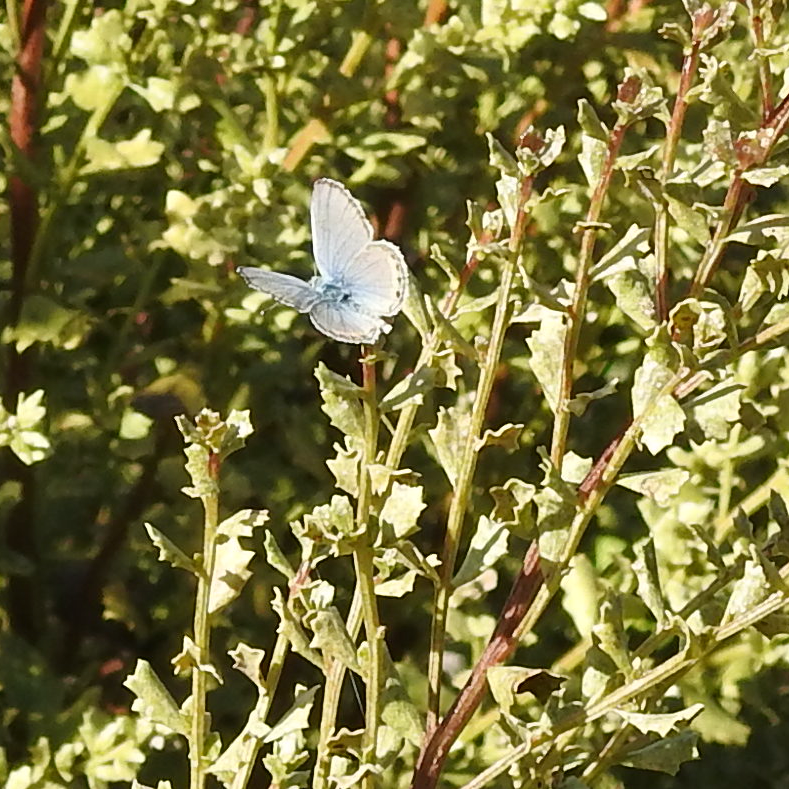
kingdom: Animalia
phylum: Arthropoda
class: Insecta
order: Lepidoptera
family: Lycaenidae
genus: Icaricia
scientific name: Icaricia acmon
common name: Acmon blue
